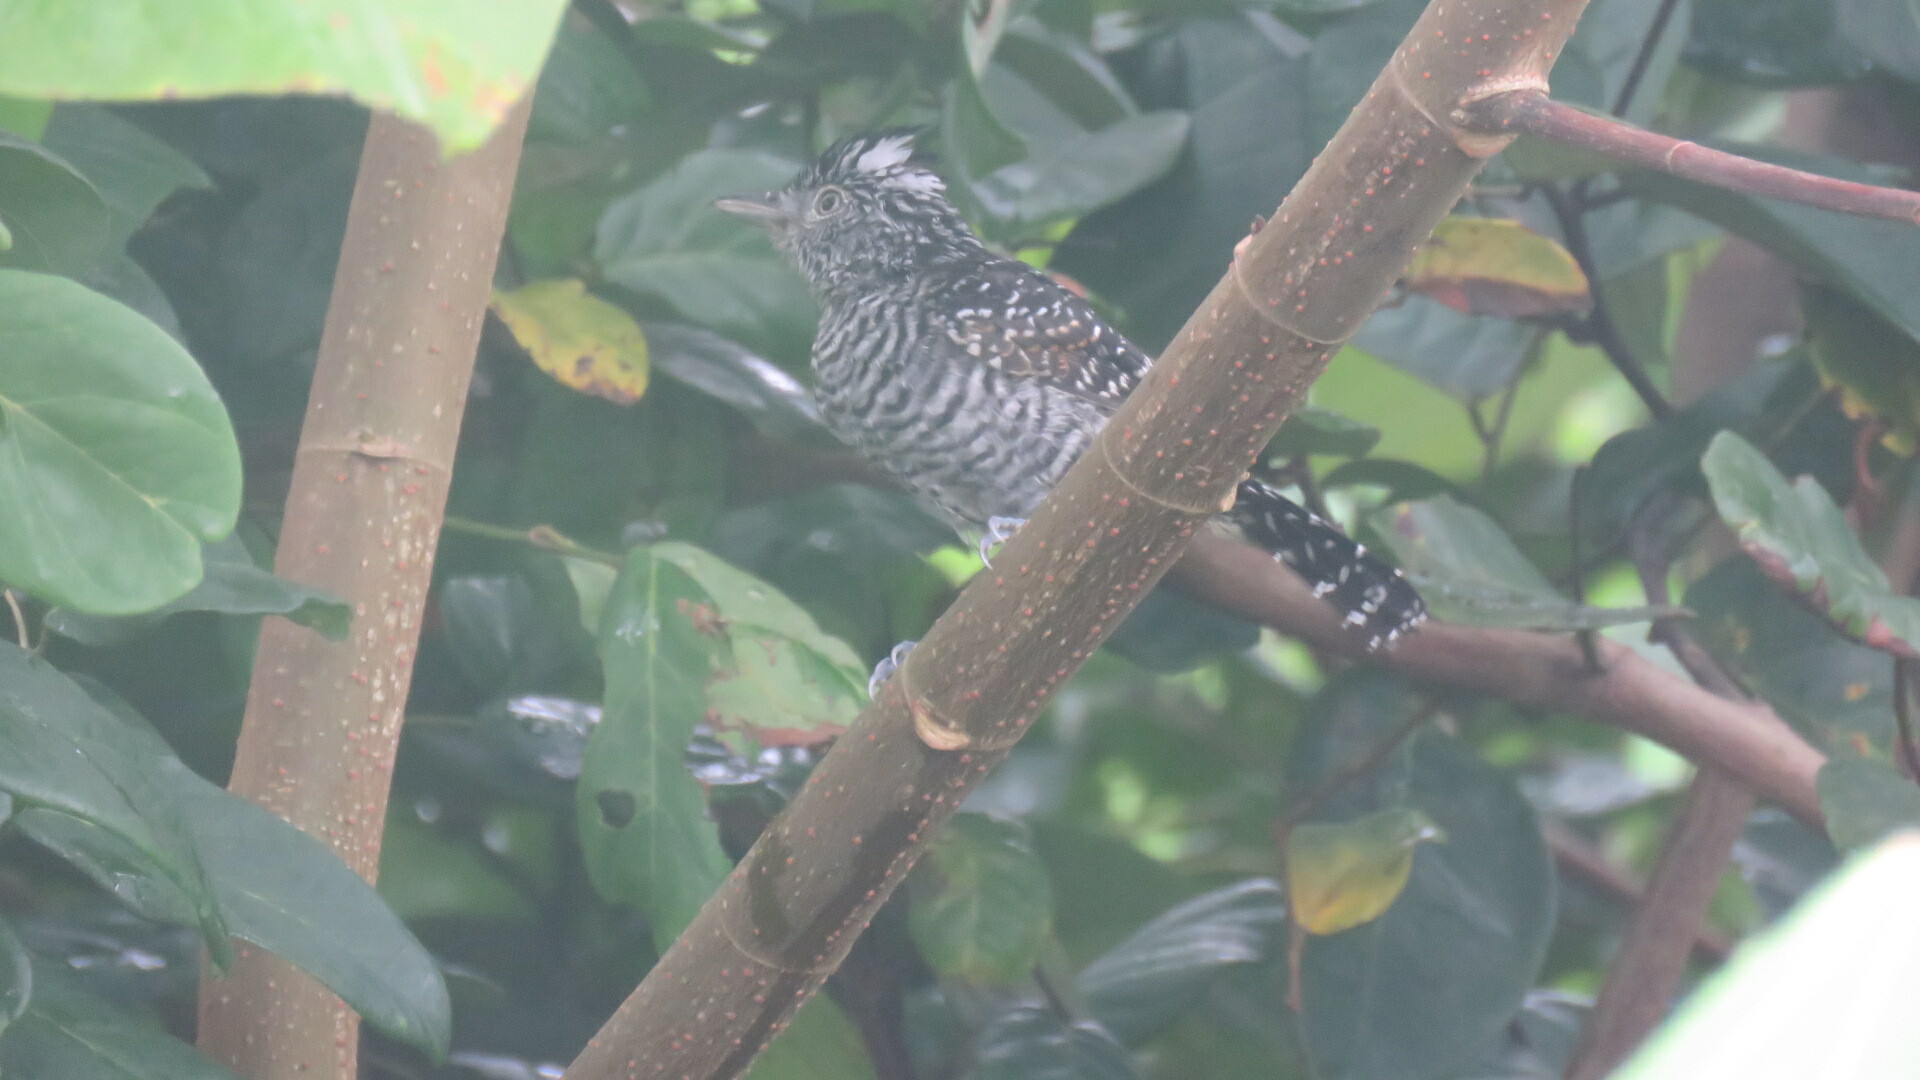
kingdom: Animalia
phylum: Chordata
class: Aves
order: Passeriformes
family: Thamnophilidae
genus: Thamnophilus
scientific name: Thamnophilus doliatus
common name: Barred antshrike
